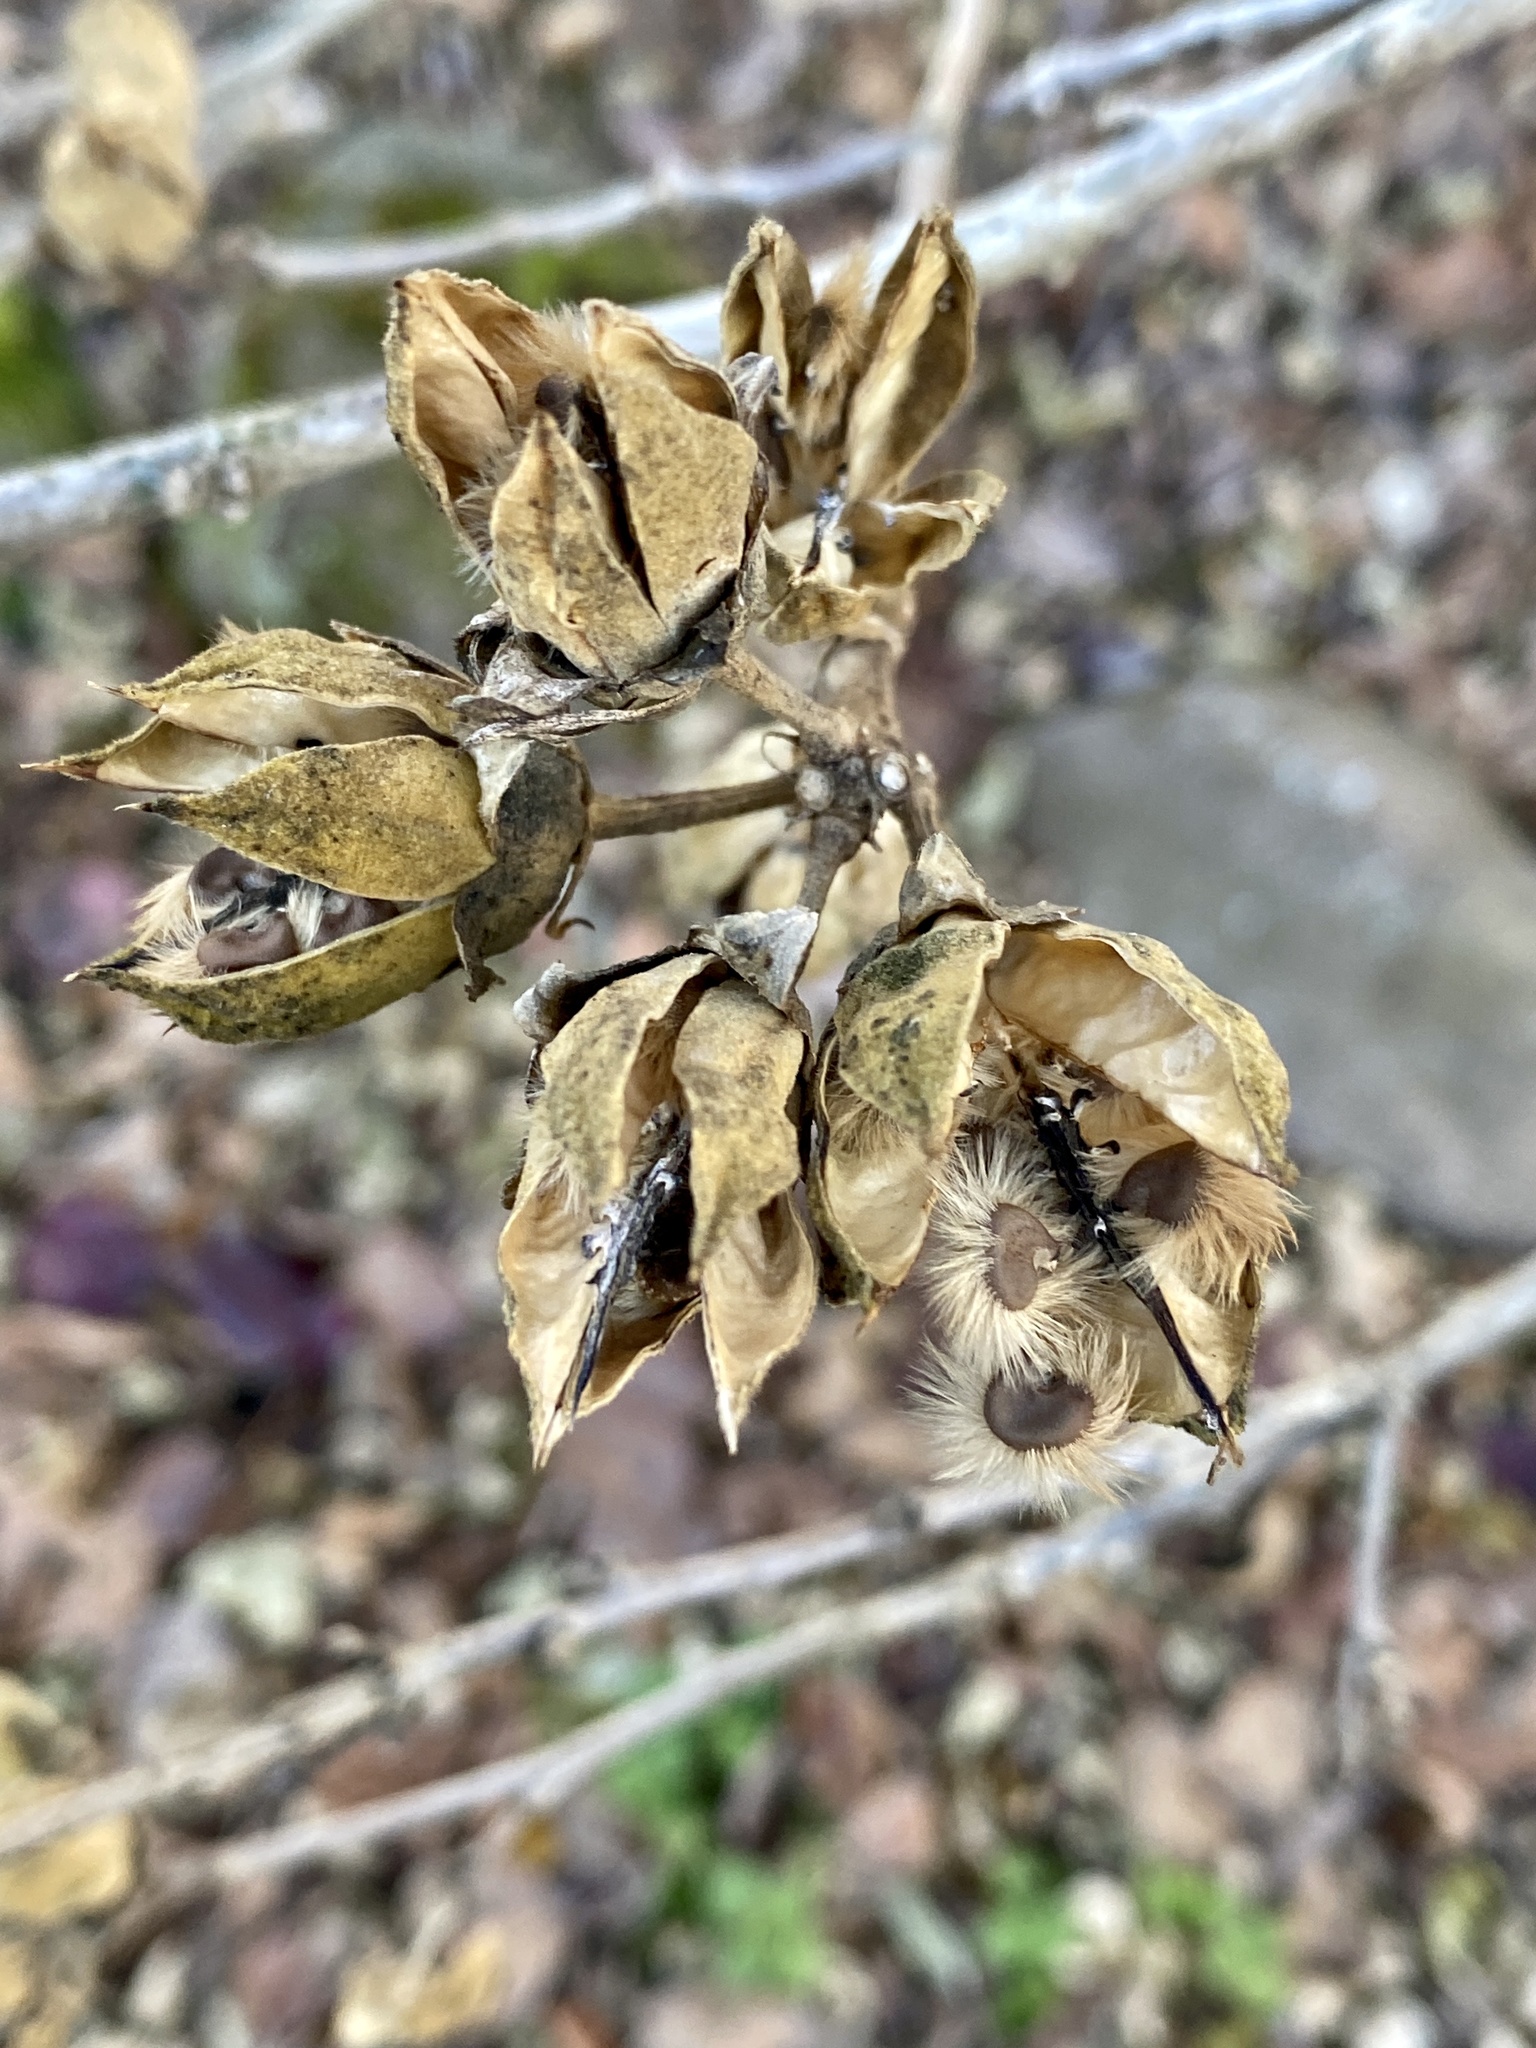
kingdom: Plantae
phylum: Tracheophyta
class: Magnoliopsida
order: Malvales
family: Malvaceae
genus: Hibiscus
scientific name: Hibiscus syriacus
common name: Syrian ketmia
